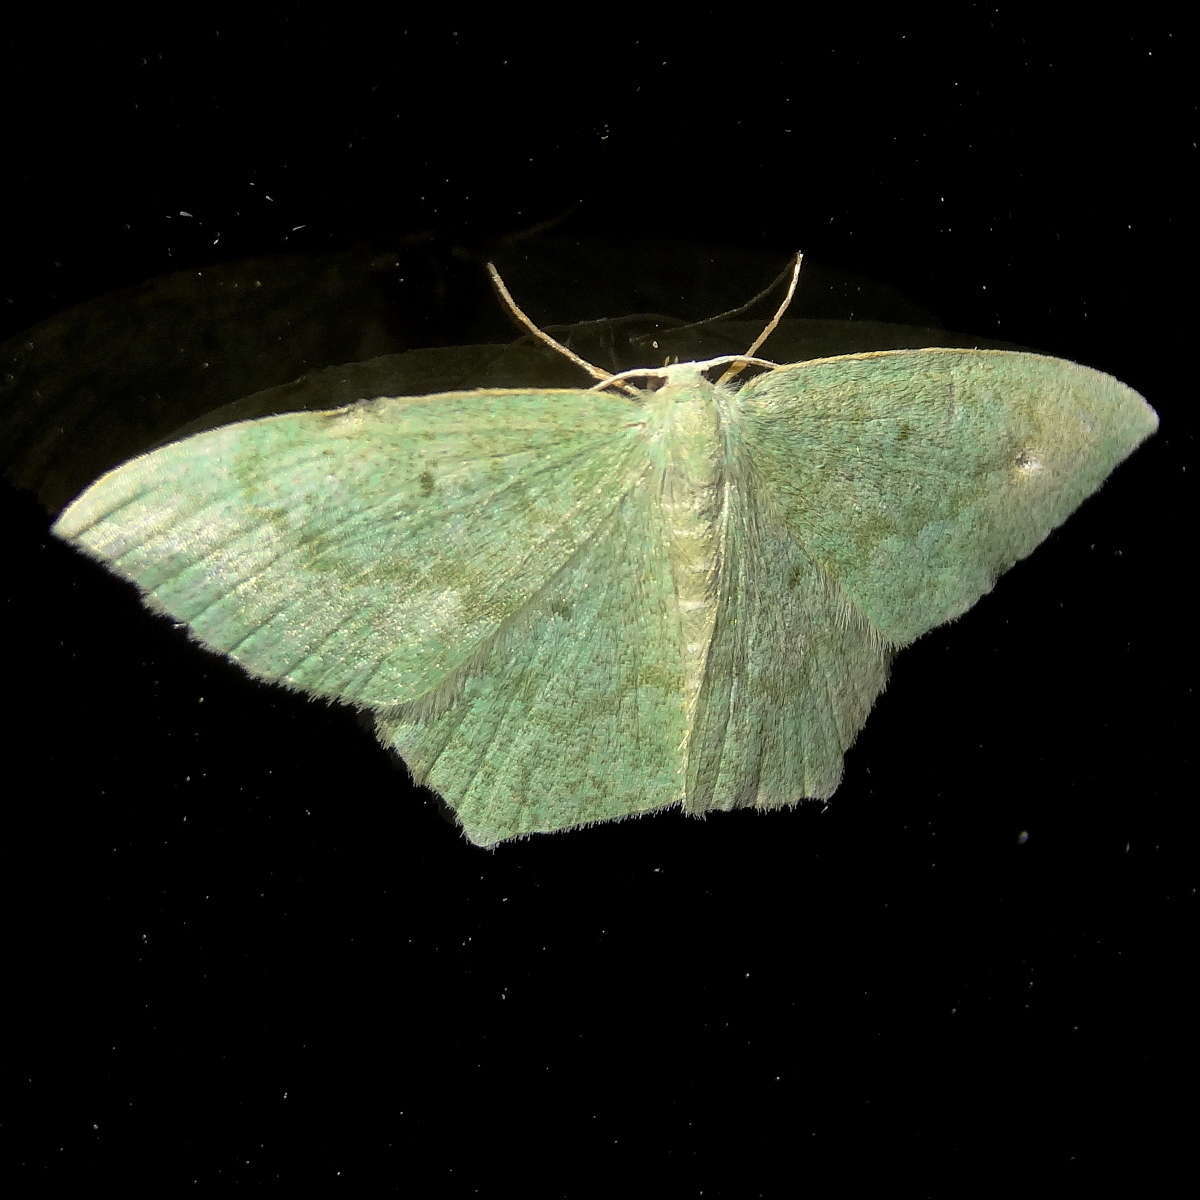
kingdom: Animalia
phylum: Arthropoda
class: Insecta
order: Lepidoptera
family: Geometridae
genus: Maxates
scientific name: Maxates centrophylla
